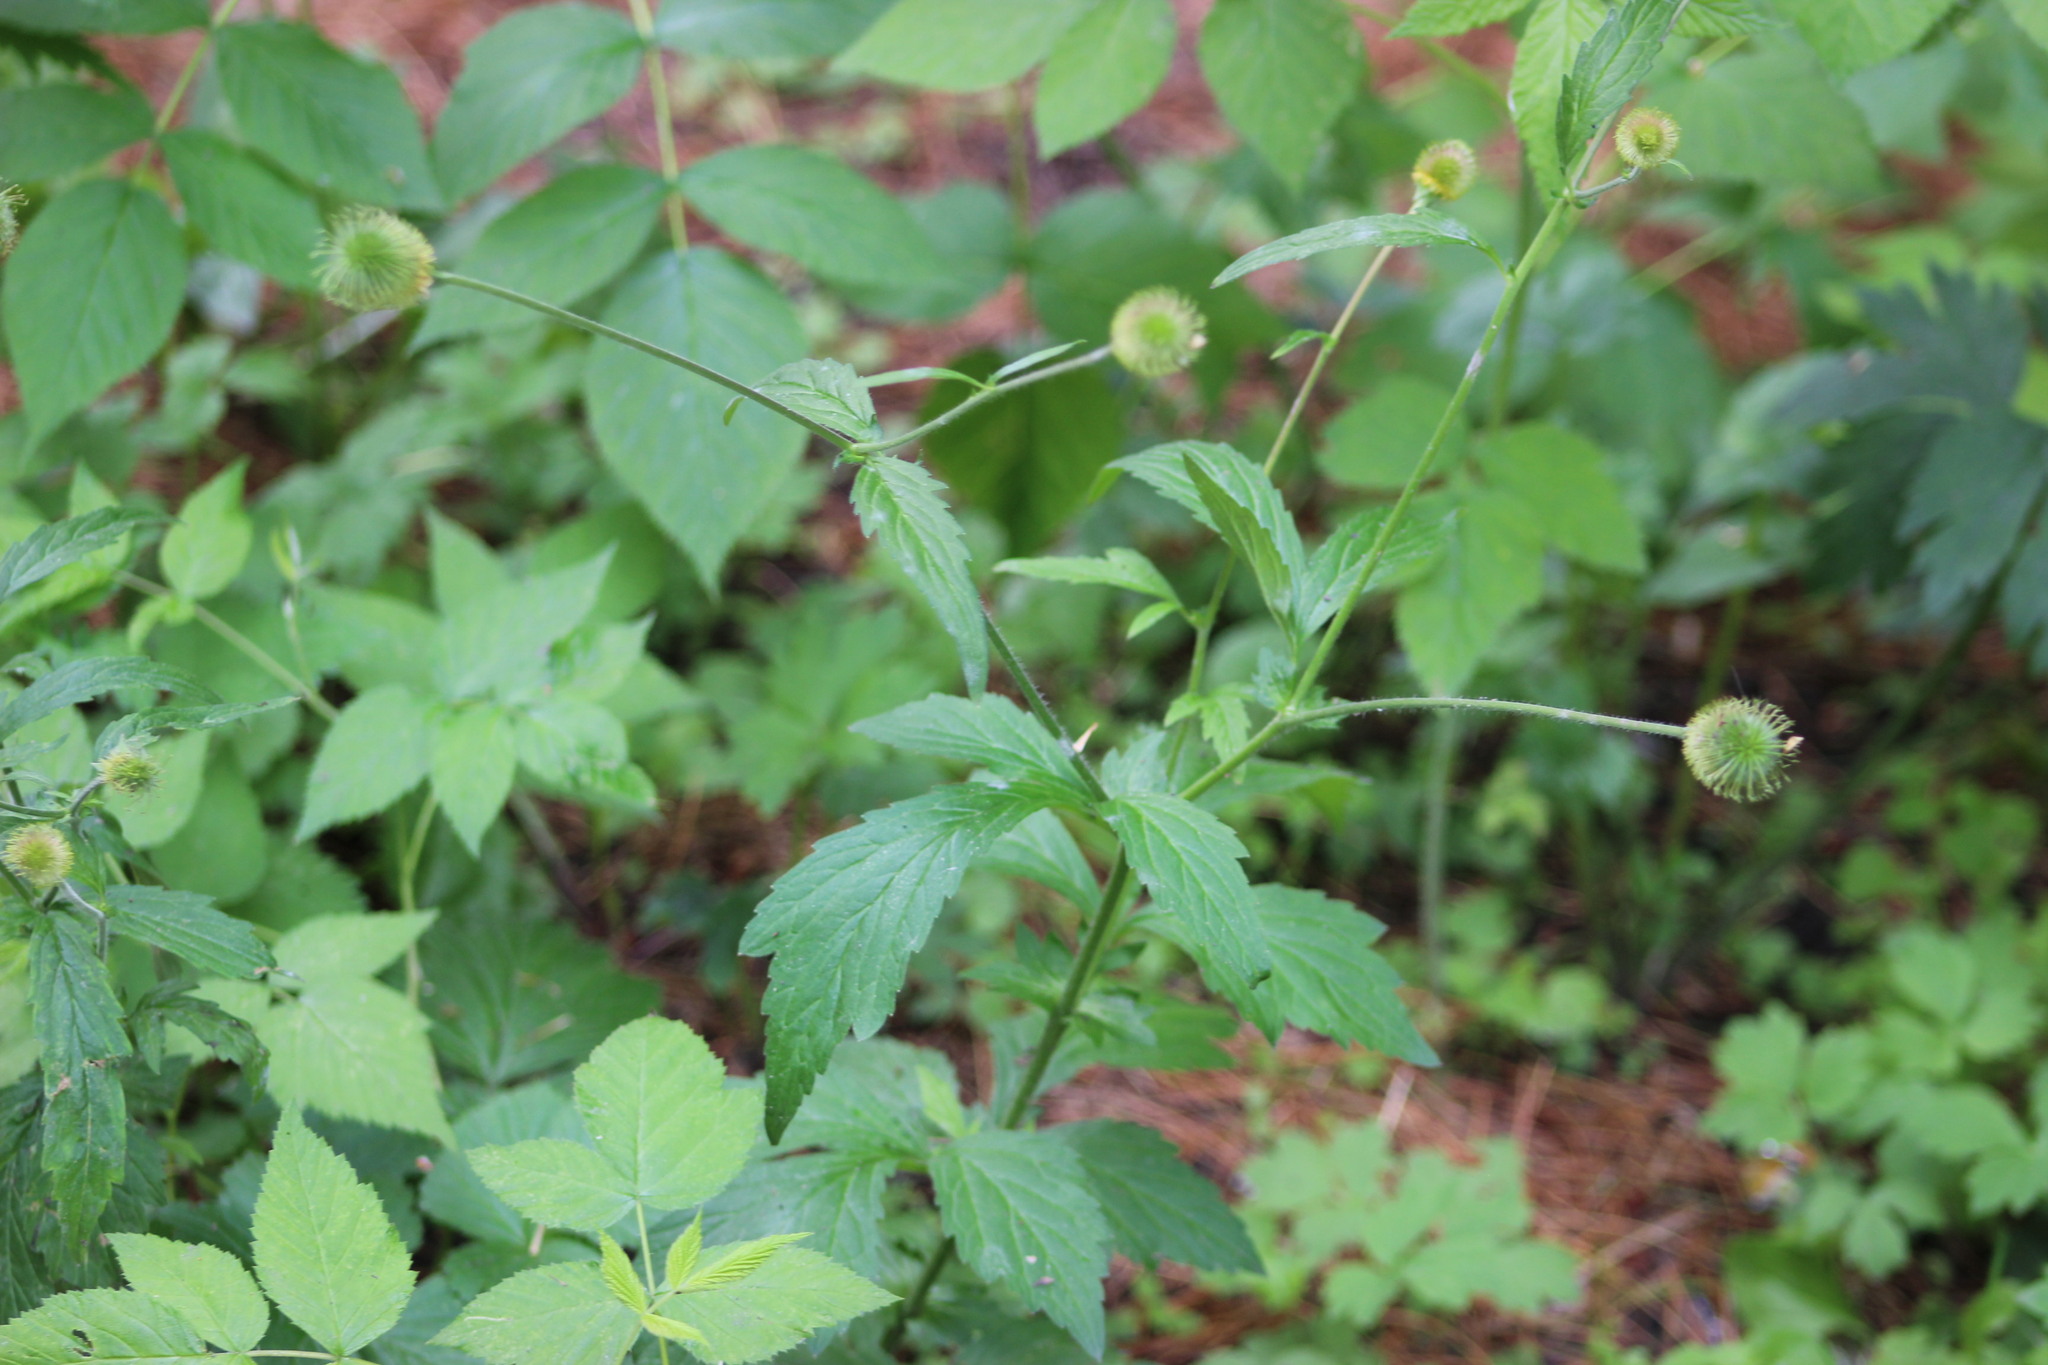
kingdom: Plantae
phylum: Tracheophyta
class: Magnoliopsida
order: Rosales
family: Rosaceae
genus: Geum
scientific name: Geum aleppicum
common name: Yellow avens
